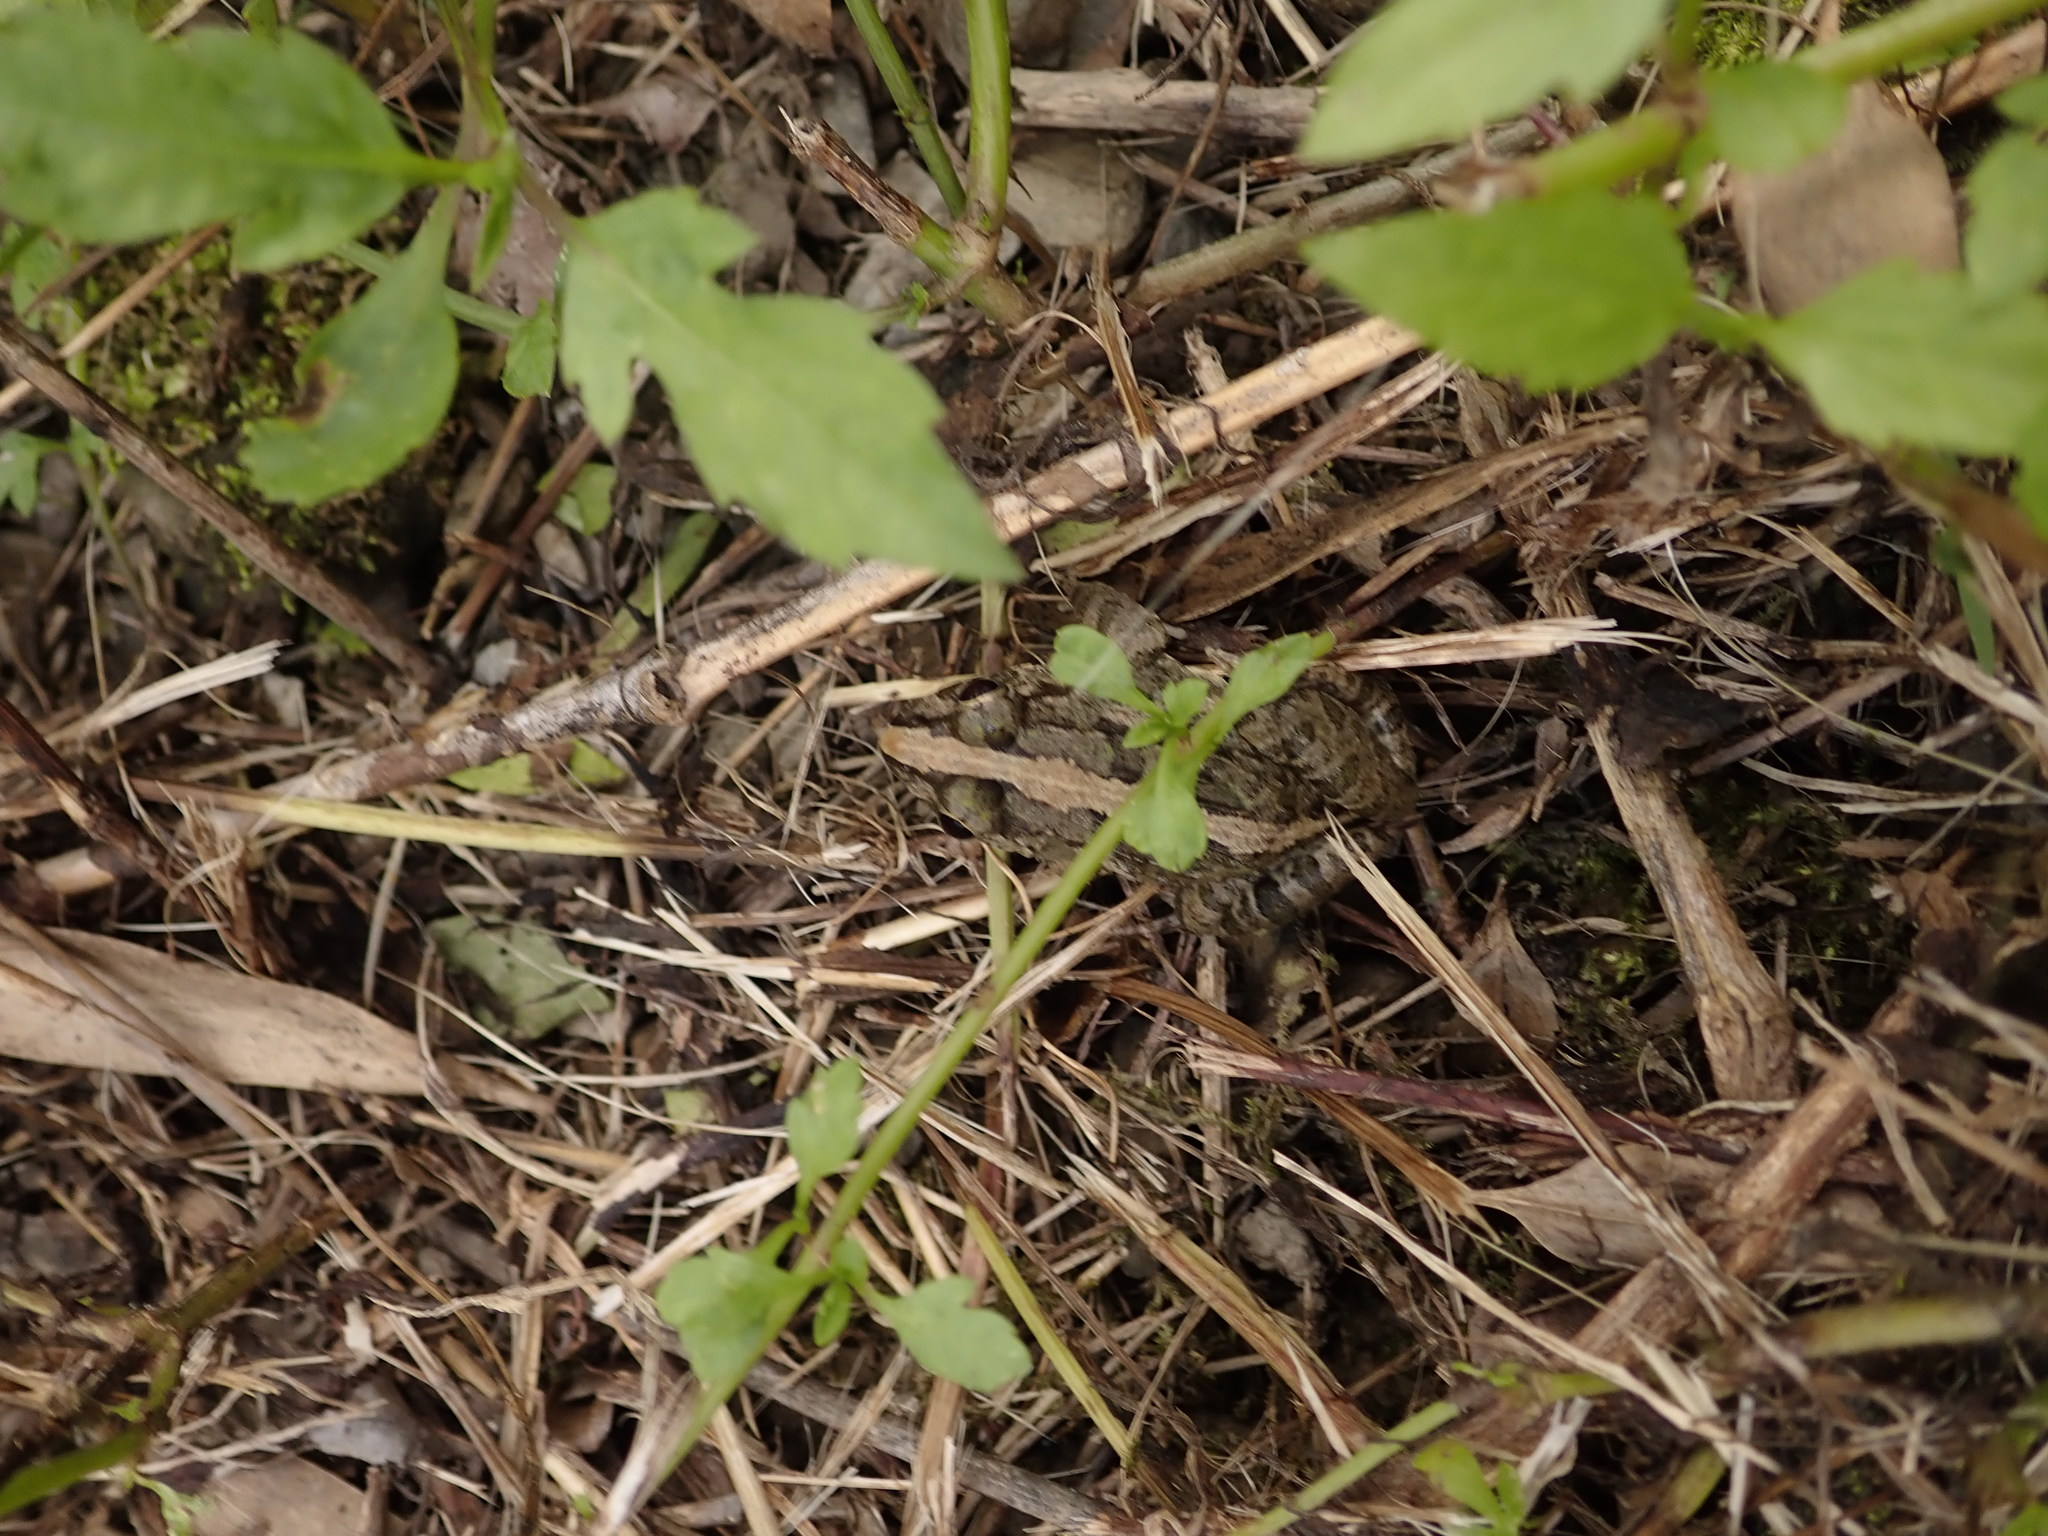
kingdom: Animalia
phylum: Chordata
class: Amphibia
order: Anura
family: Dicroglossidae
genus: Fejervarya
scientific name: Fejervarya limnocharis
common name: Asian grass frog/common pond frog/field frog/grass frog/indian rice frog
